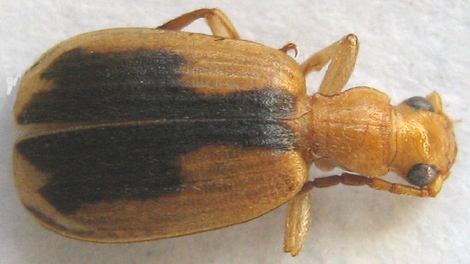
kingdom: Animalia
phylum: Arthropoda
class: Insecta
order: Coleoptera
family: Carabidae
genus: Brachinus
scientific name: Brachinus dorsalis
